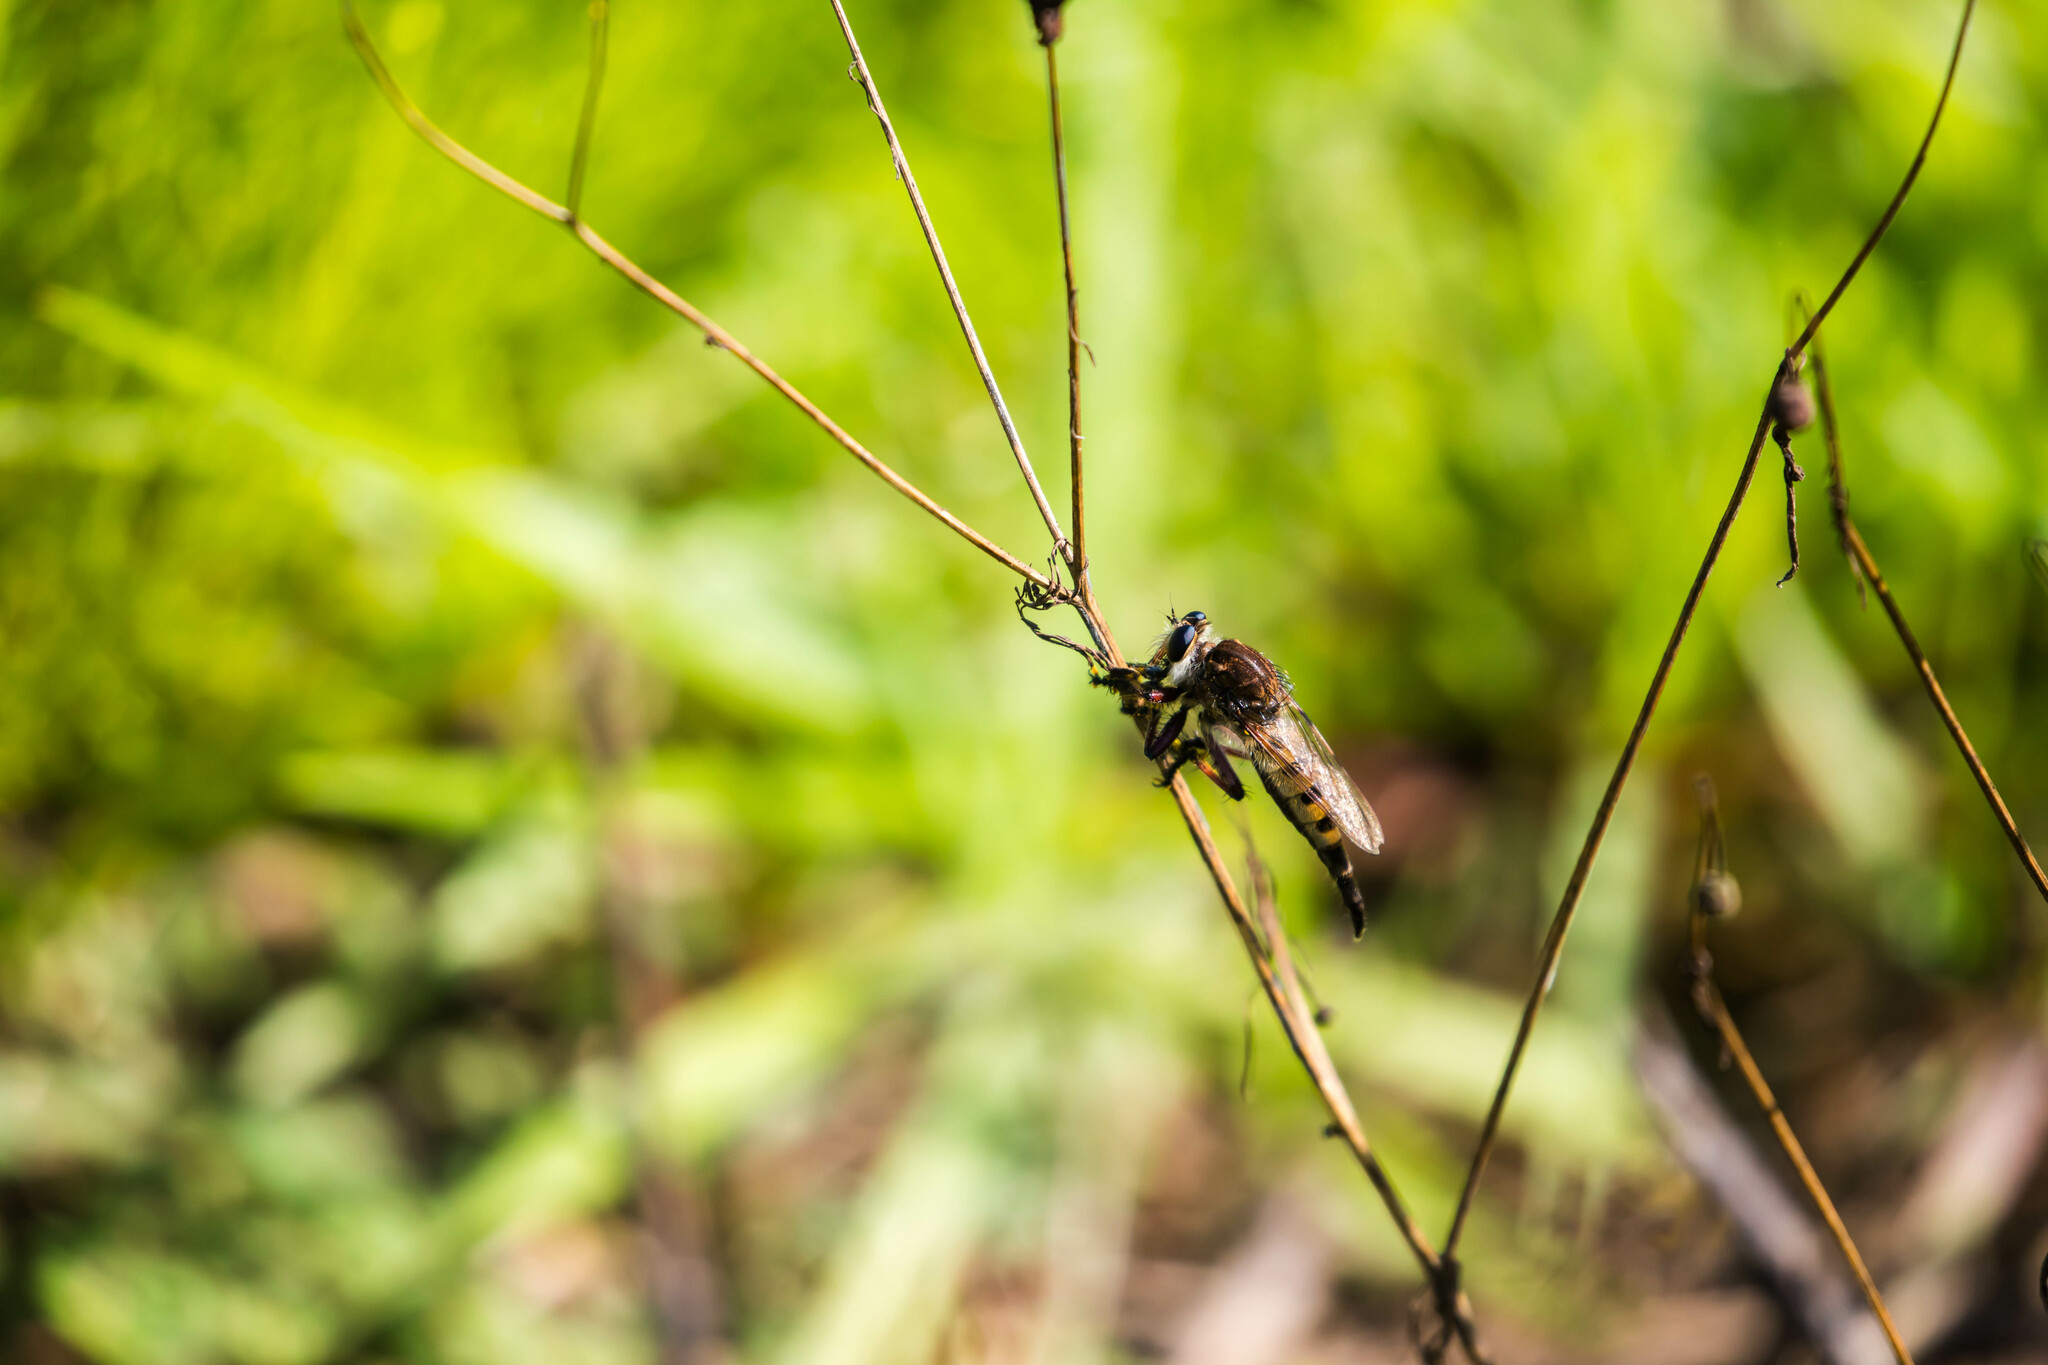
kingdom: Animalia
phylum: Arthropoda
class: Insecta
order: Diptera
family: Asilidae
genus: Promachus
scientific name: Promachus hinei
